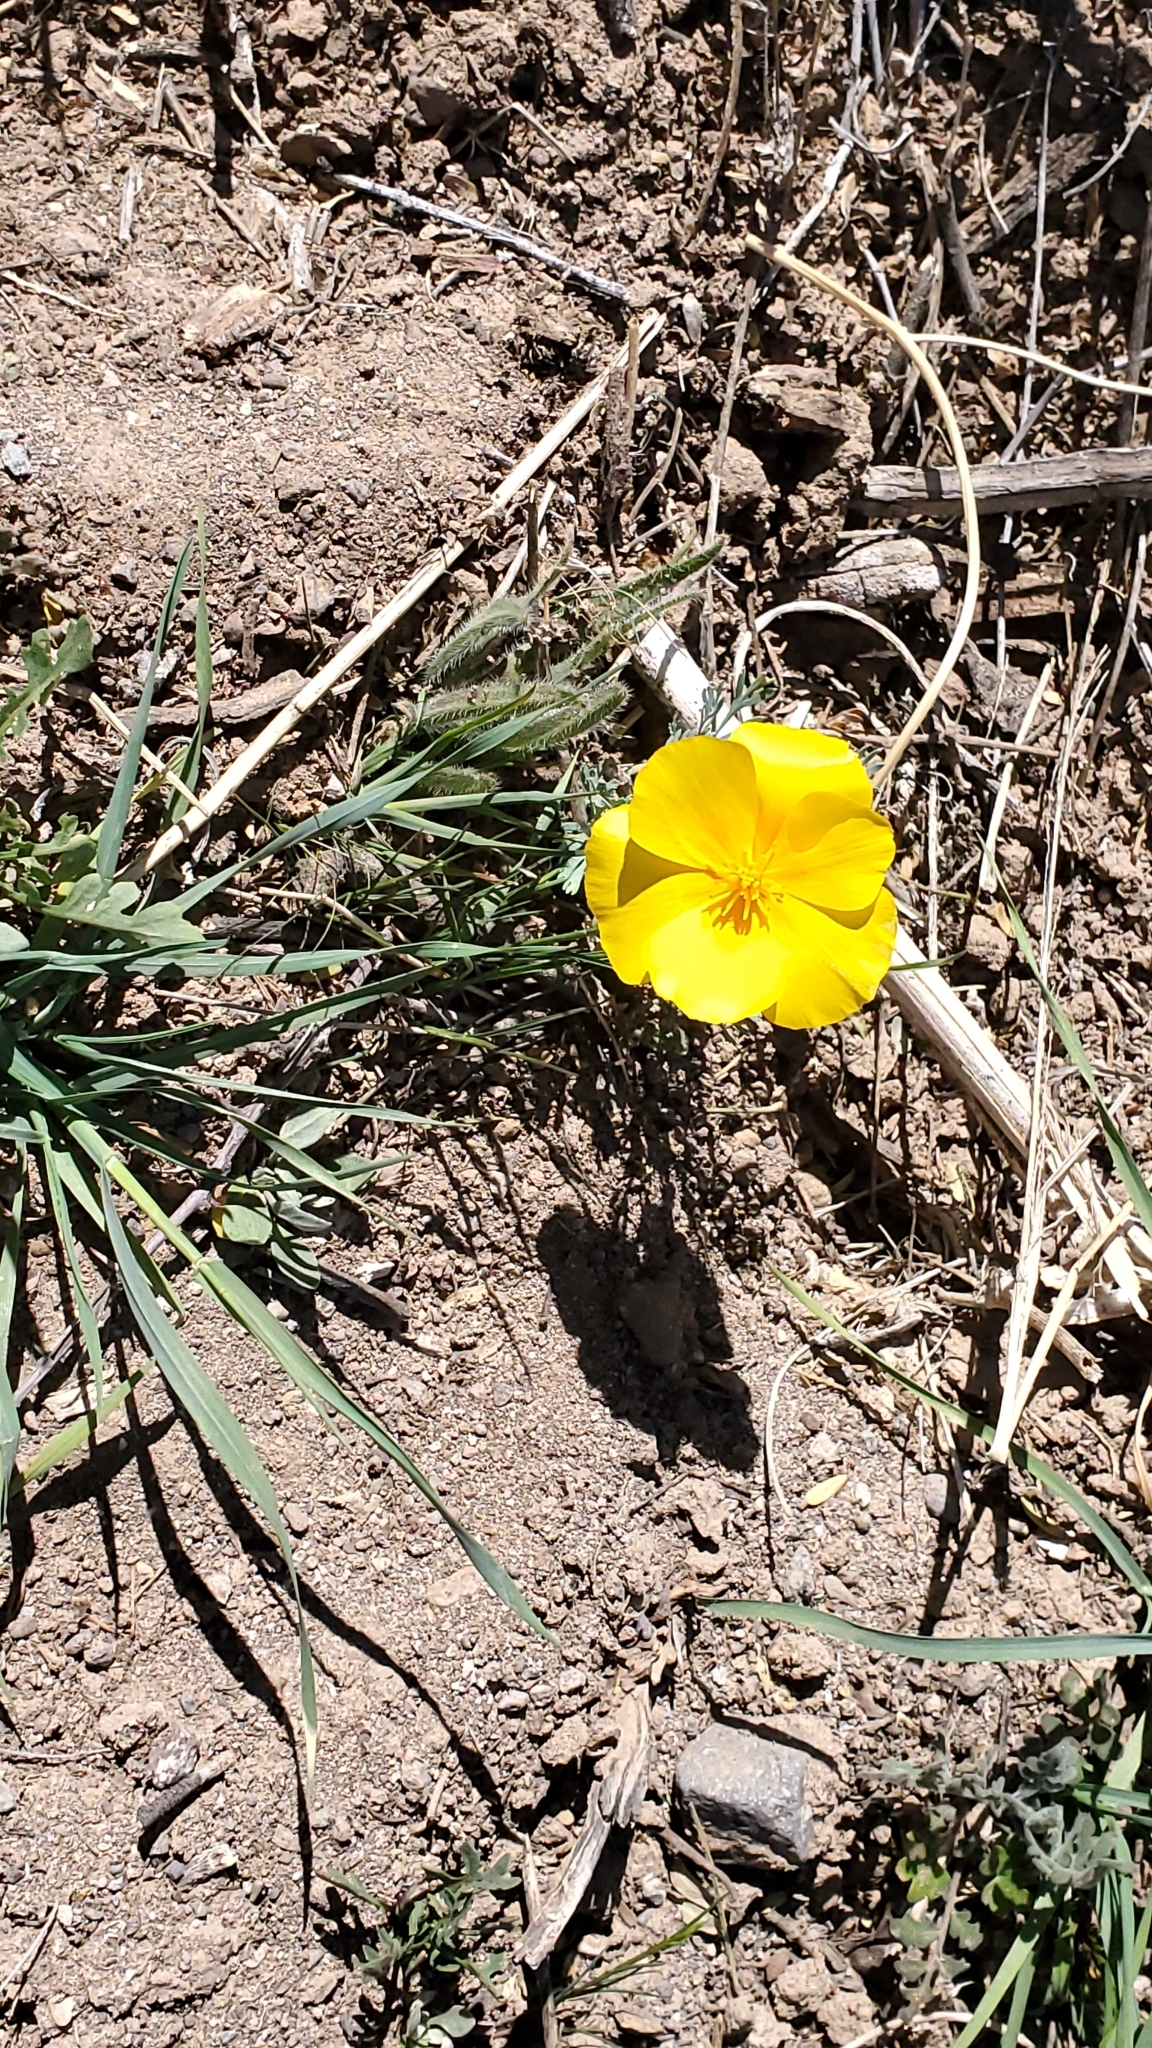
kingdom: Plantae
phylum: Tracheophyta
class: Magnoliopsida
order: Ranunculales
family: Papaveraceae
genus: Eschscholzia
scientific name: Eschscholzia californica
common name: California poppy
